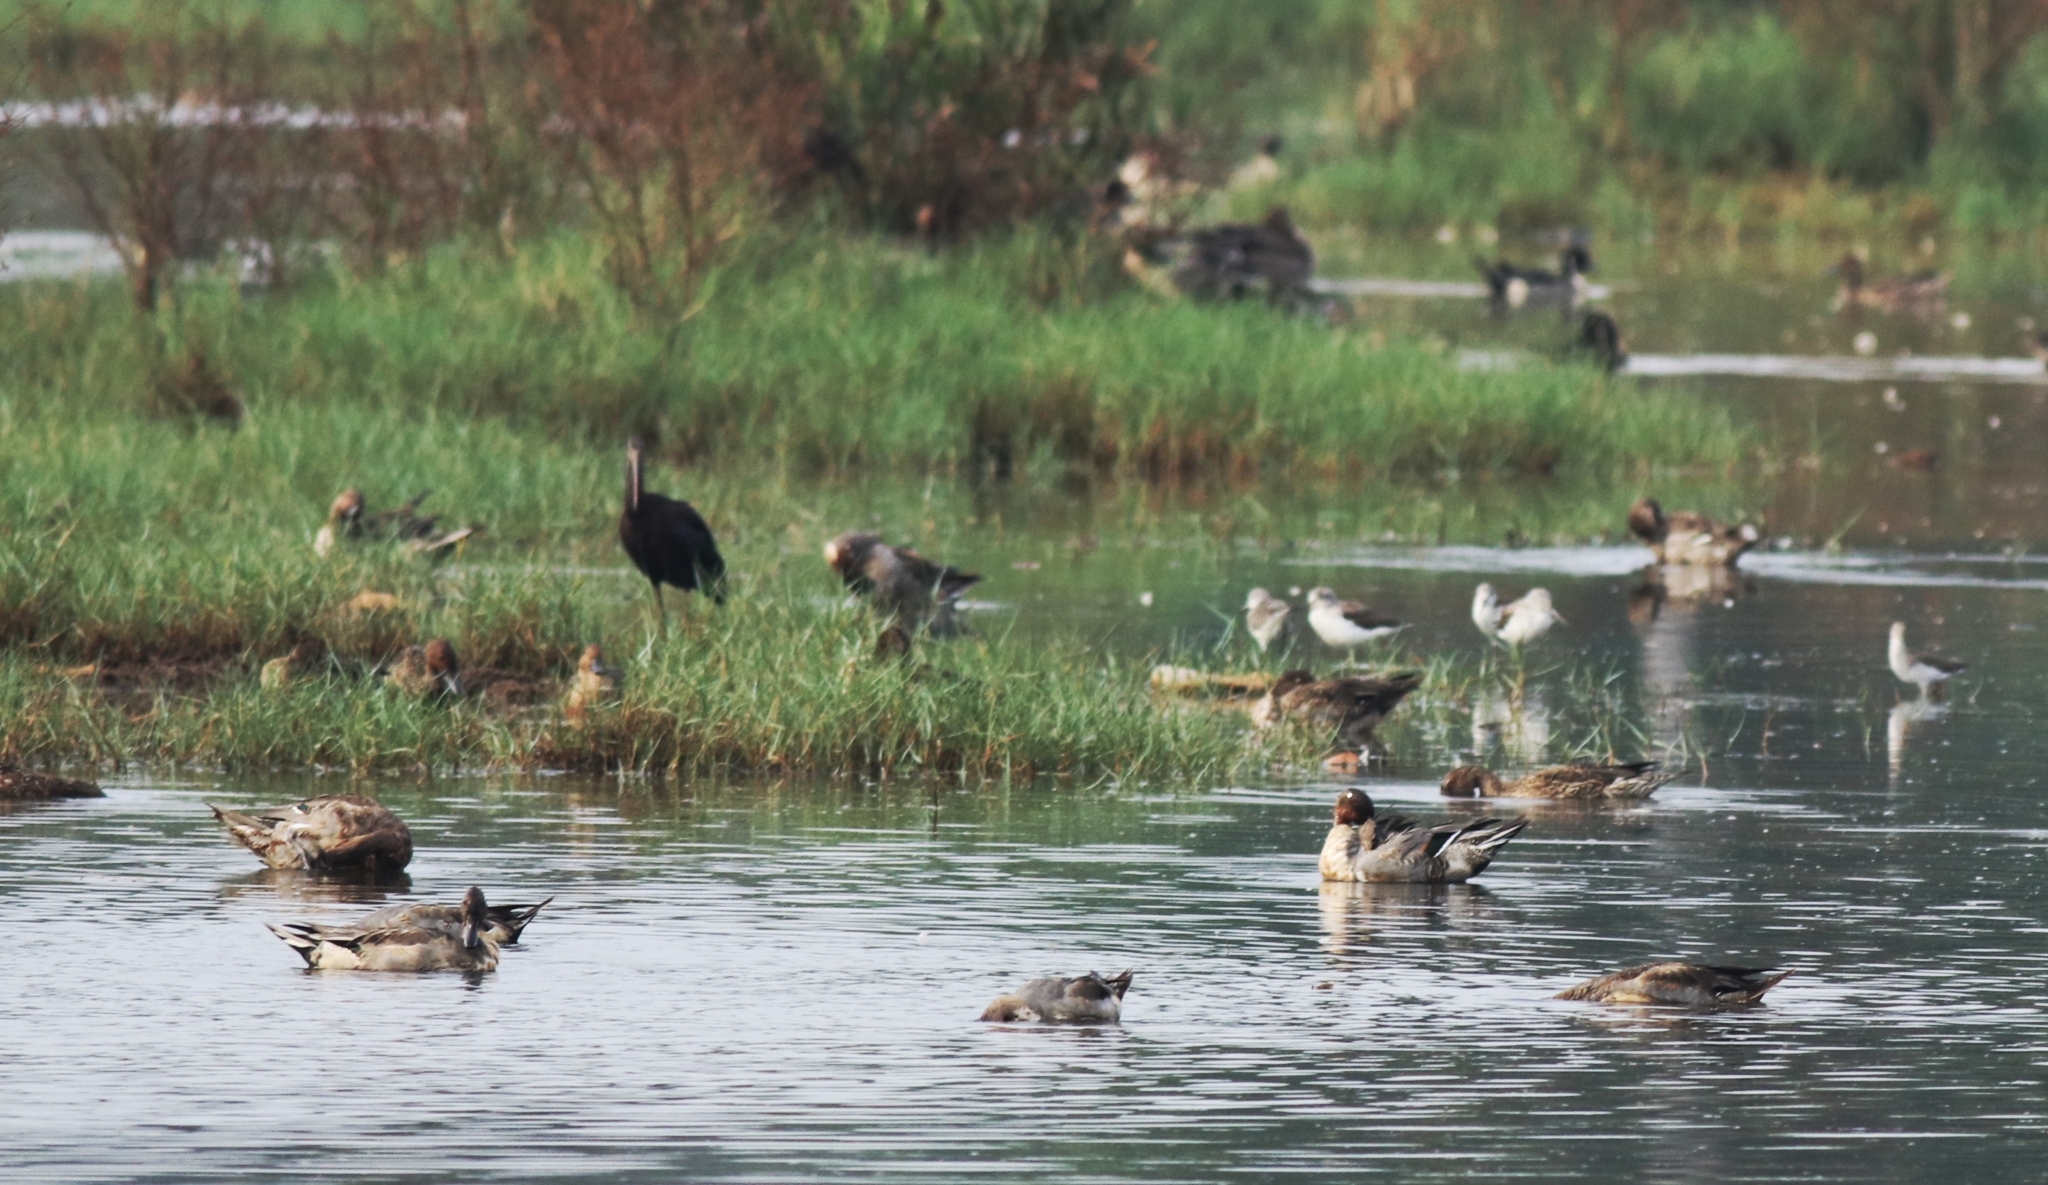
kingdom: Animalia
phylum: Chordata
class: Aves
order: Anseriformes
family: Anatidae
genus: Anas
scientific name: Anas acuta
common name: Northern pintail
